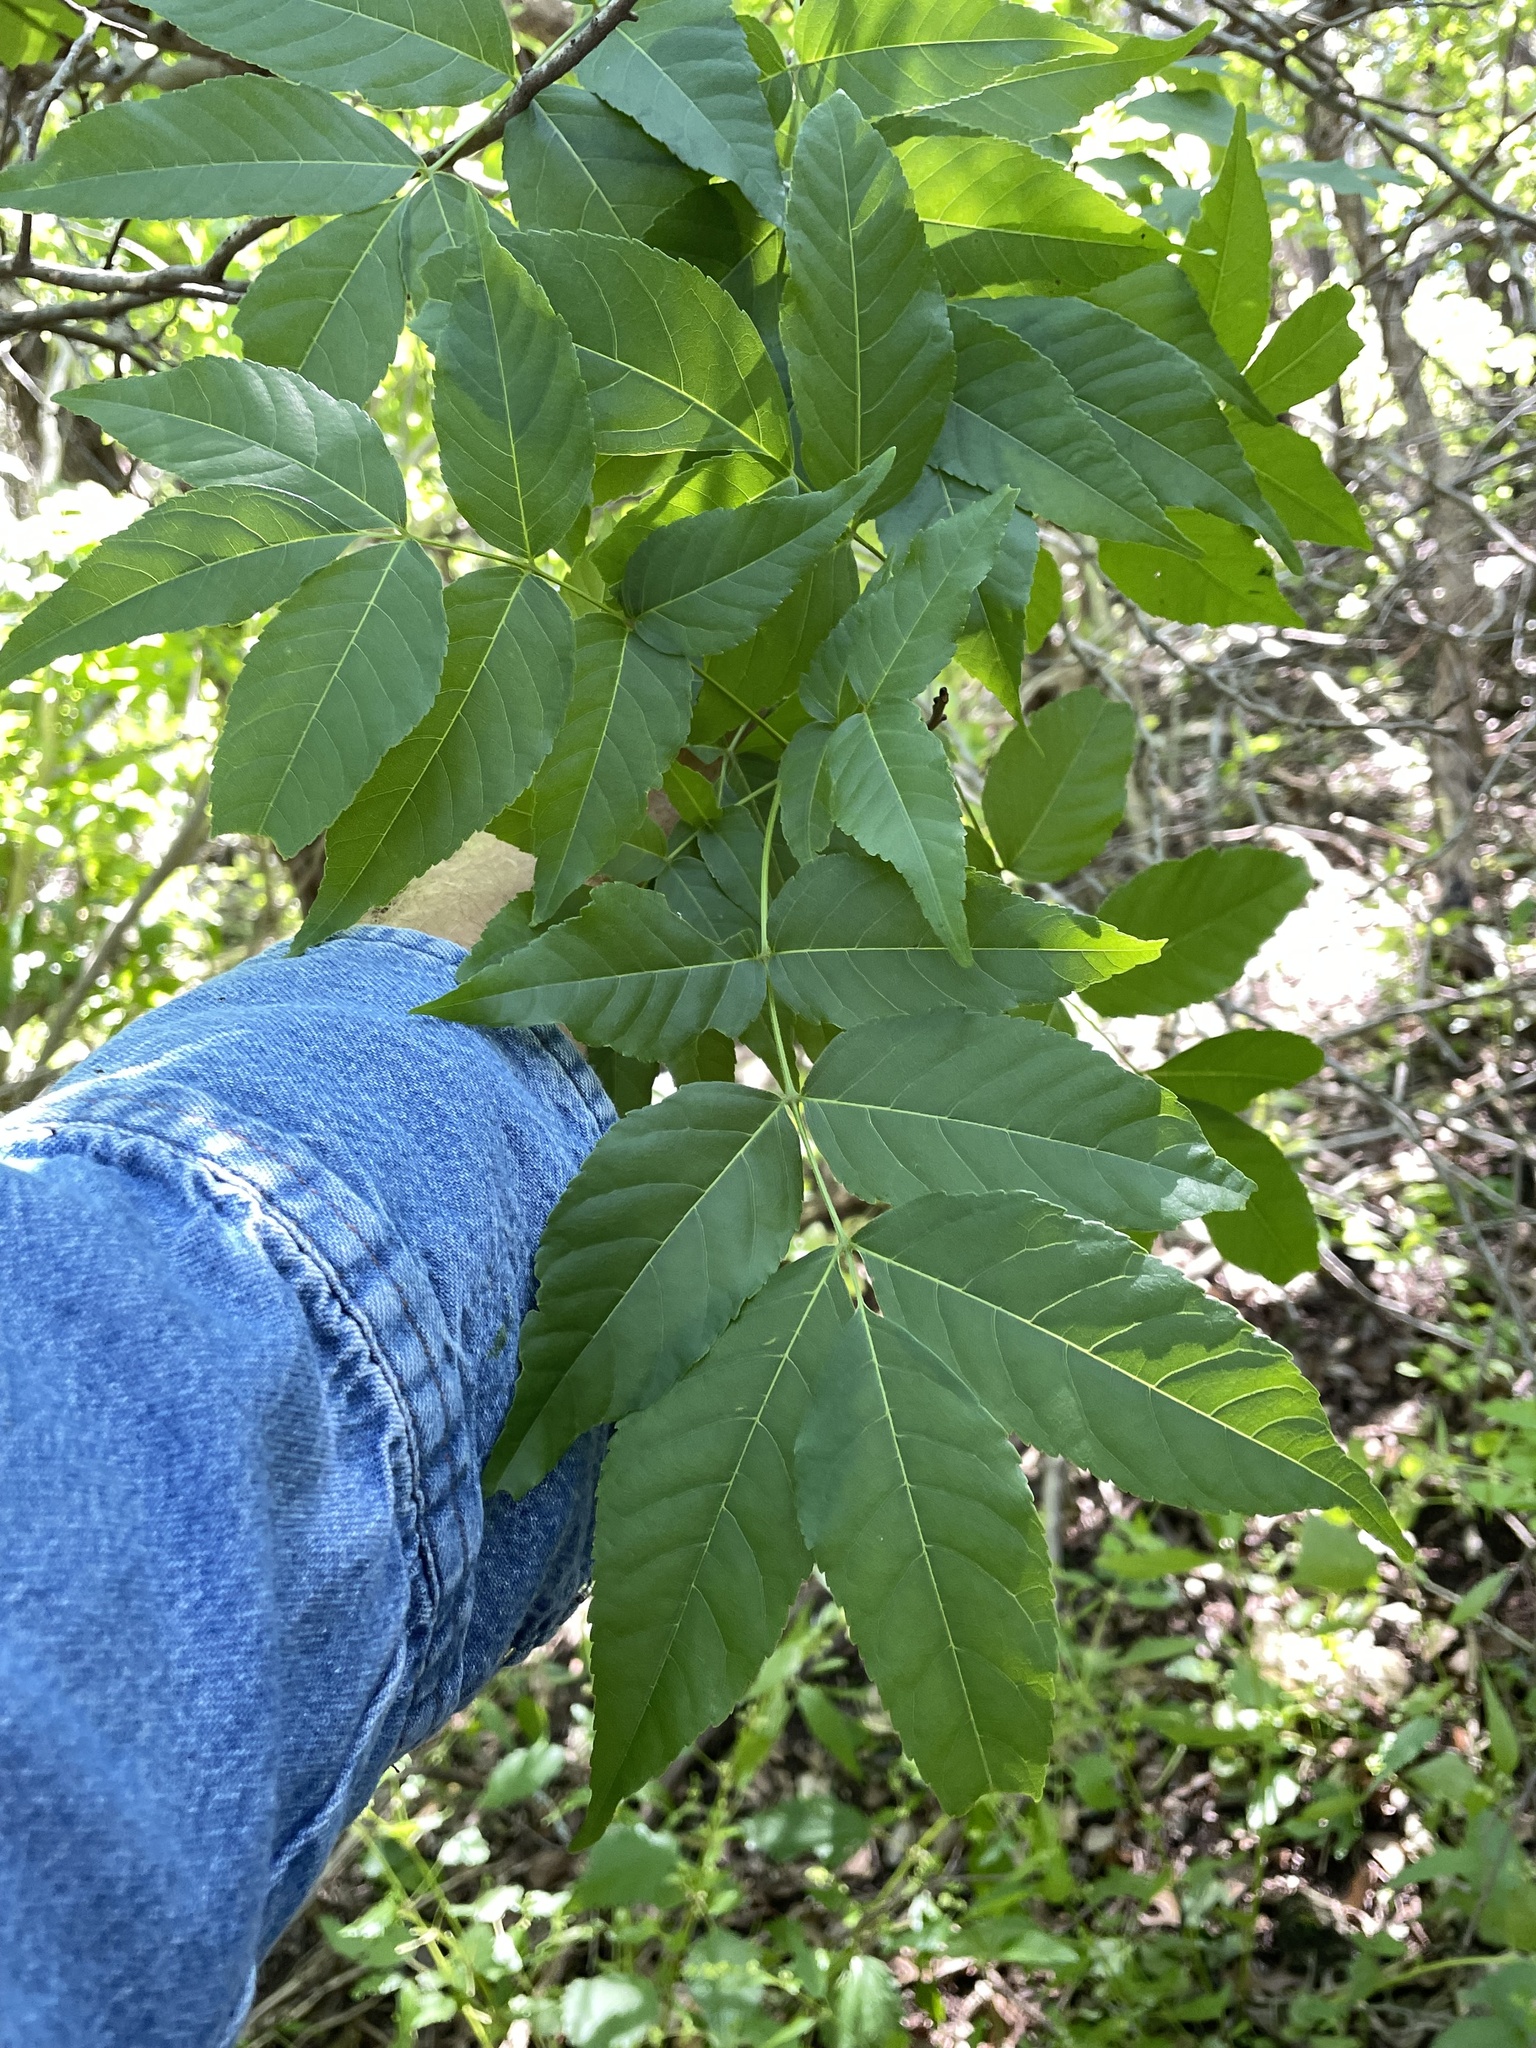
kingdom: Plantae
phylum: Tracheophyta
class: Magnoliopsida
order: Sapindales
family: Sapindaceae
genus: Ungnadia
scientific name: Ungnadia speciosa
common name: Texas-buckeye
